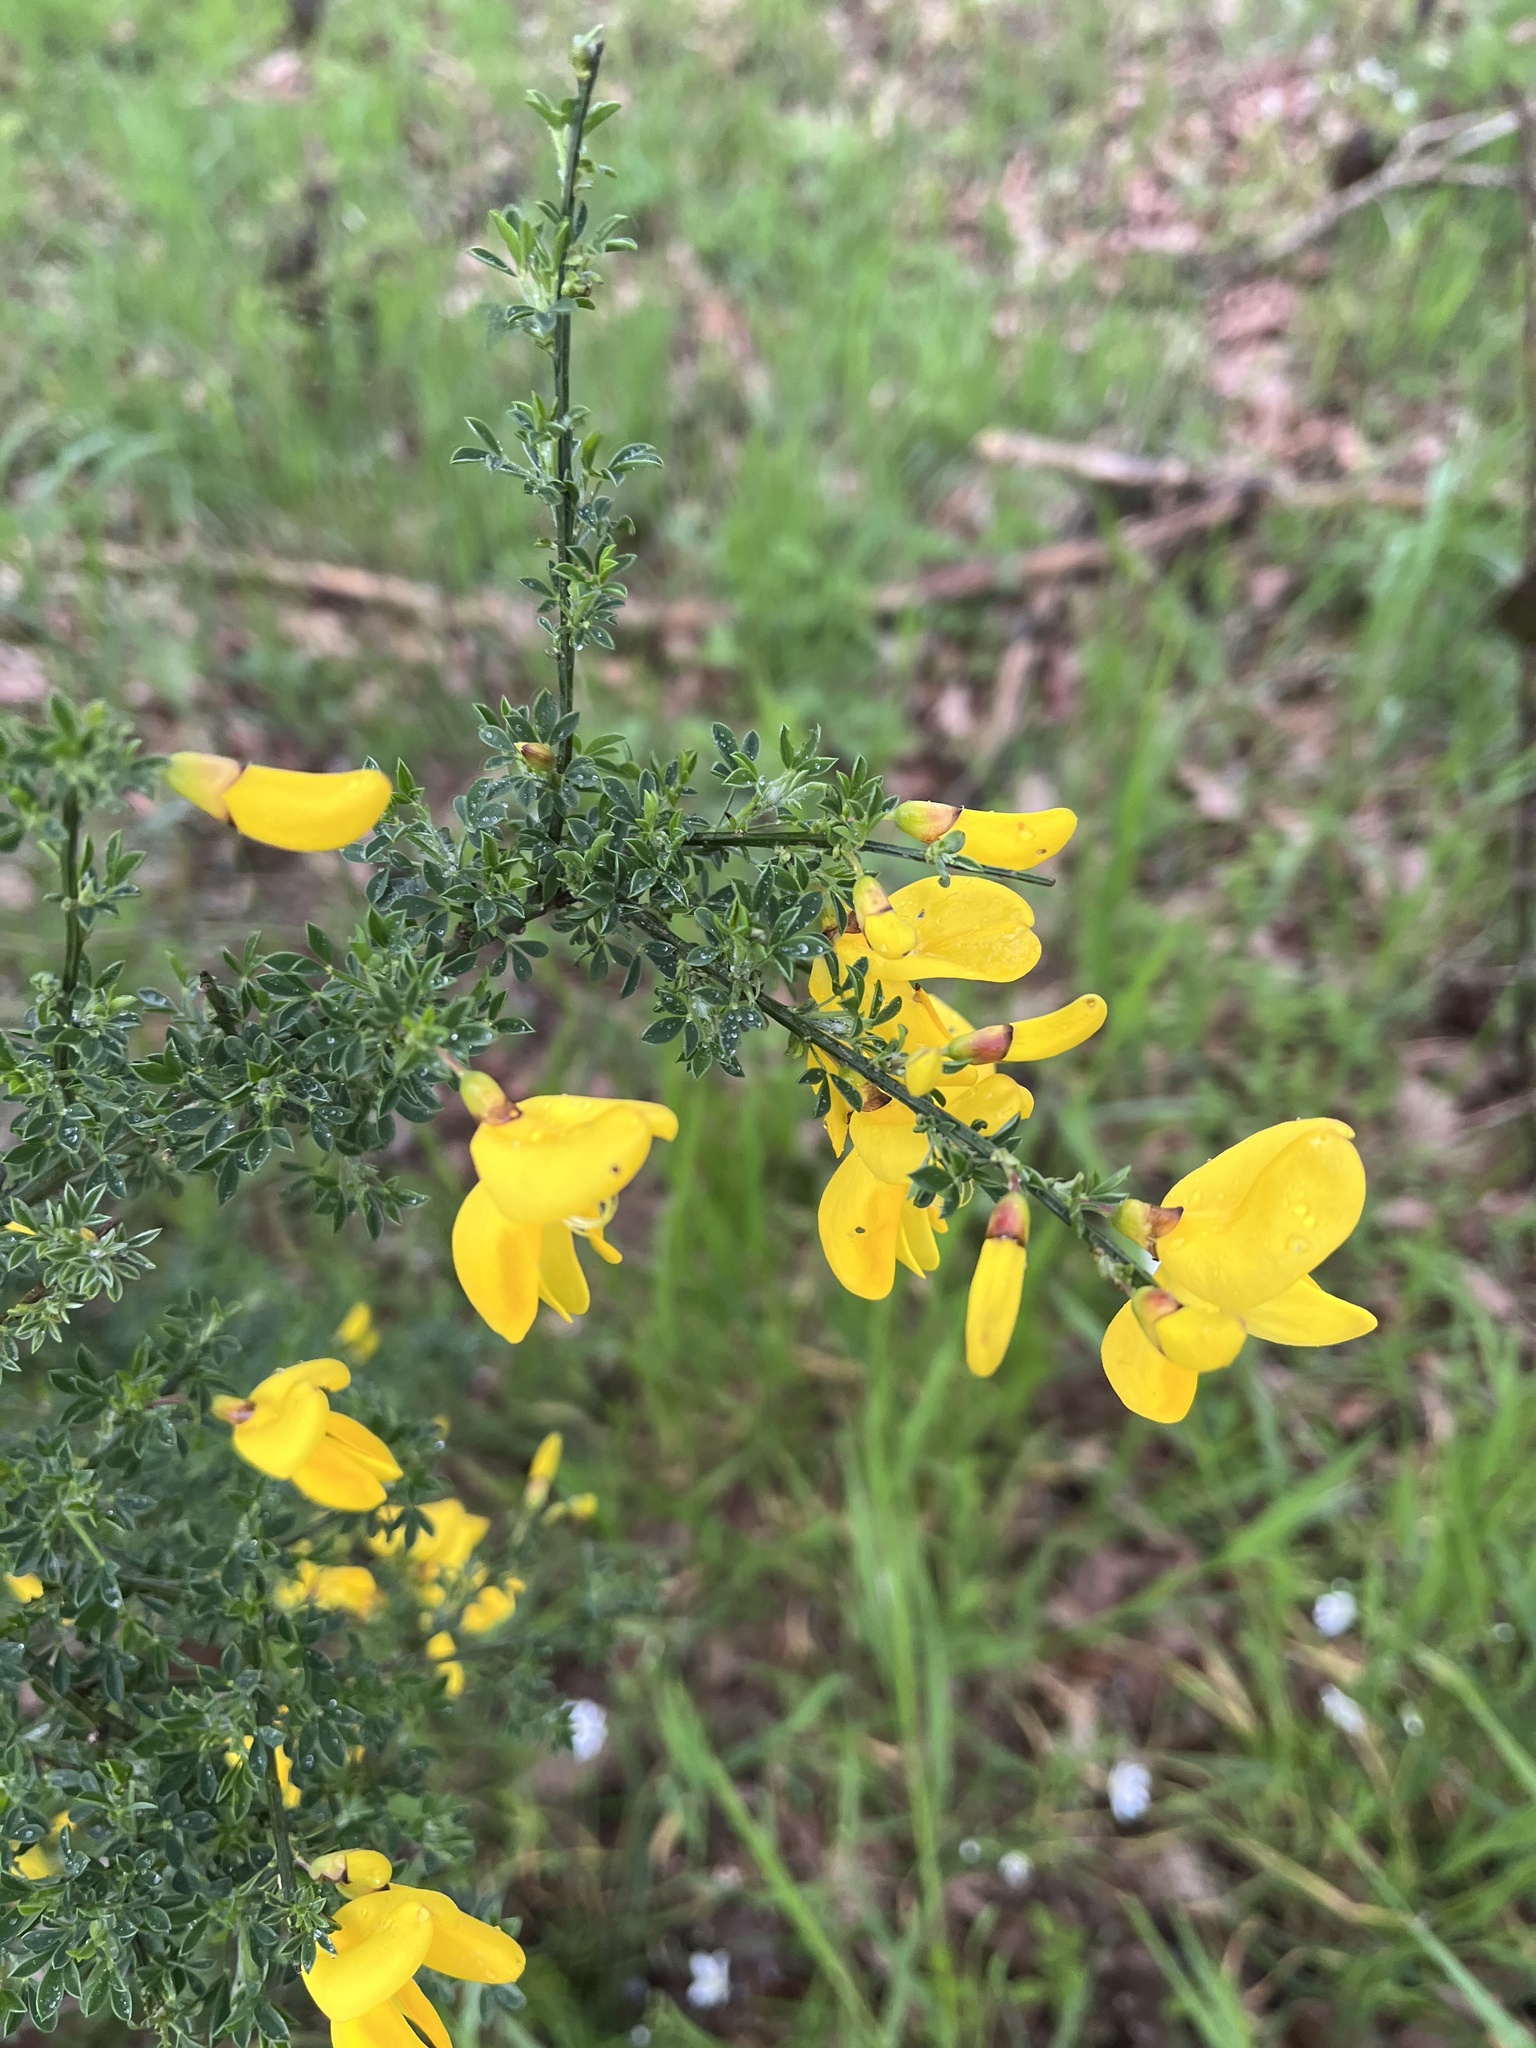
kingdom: Plantae
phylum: Tracheophyta
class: Magnoliopsida
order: Fabales
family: Fabaceae
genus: Cytisus
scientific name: Cytisus scoparius
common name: Scotch broom
